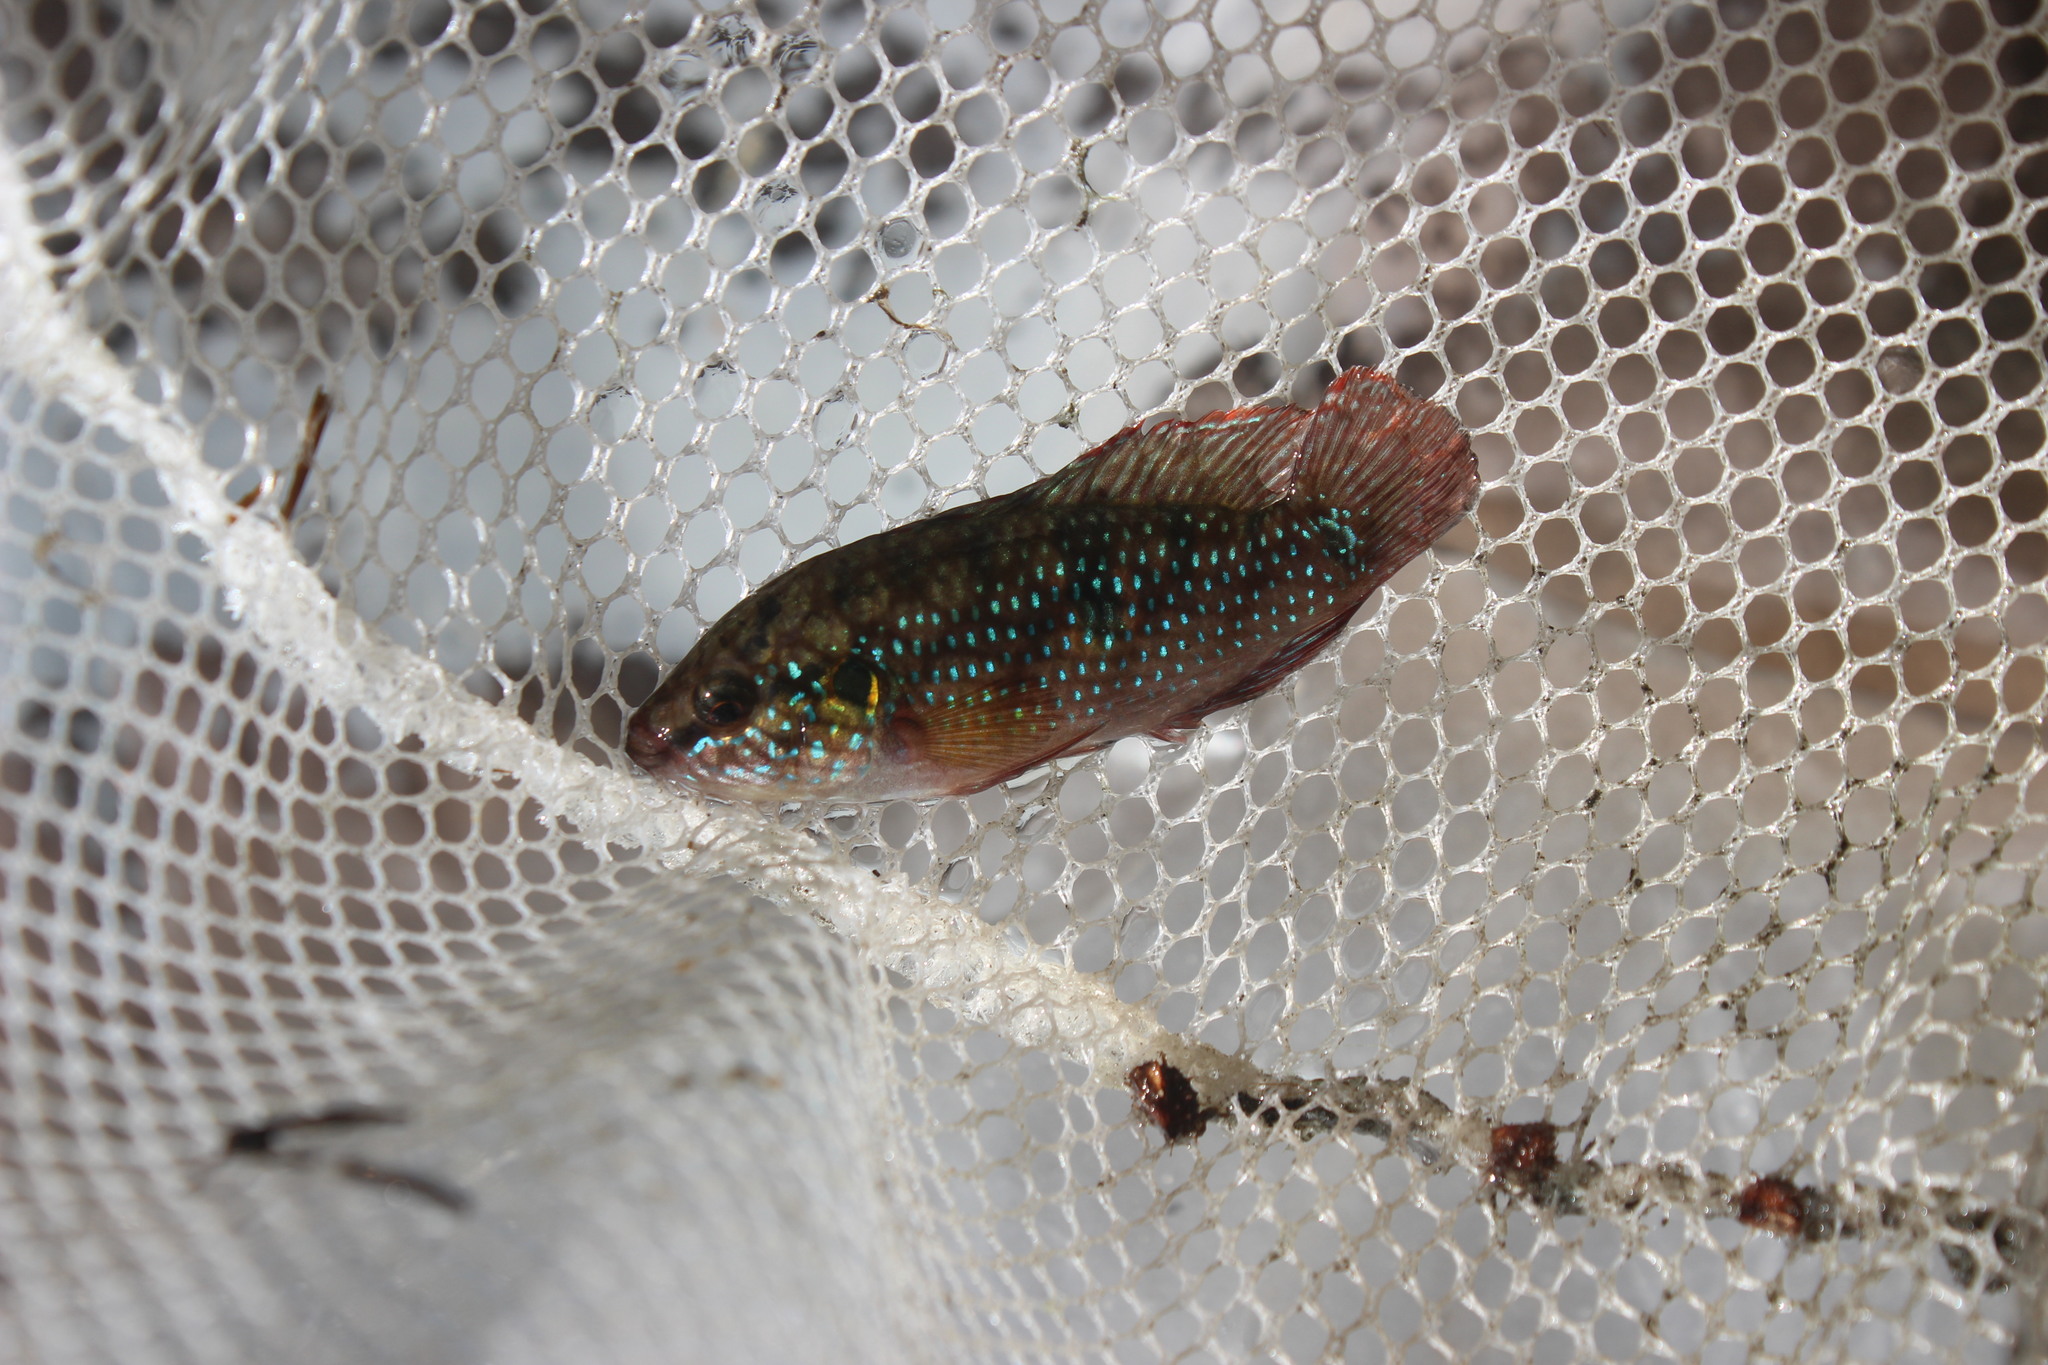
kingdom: Animalia
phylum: Chordata
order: Perciformes
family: Cichlidae
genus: Rubricatochromis
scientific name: Rubricatochromis
